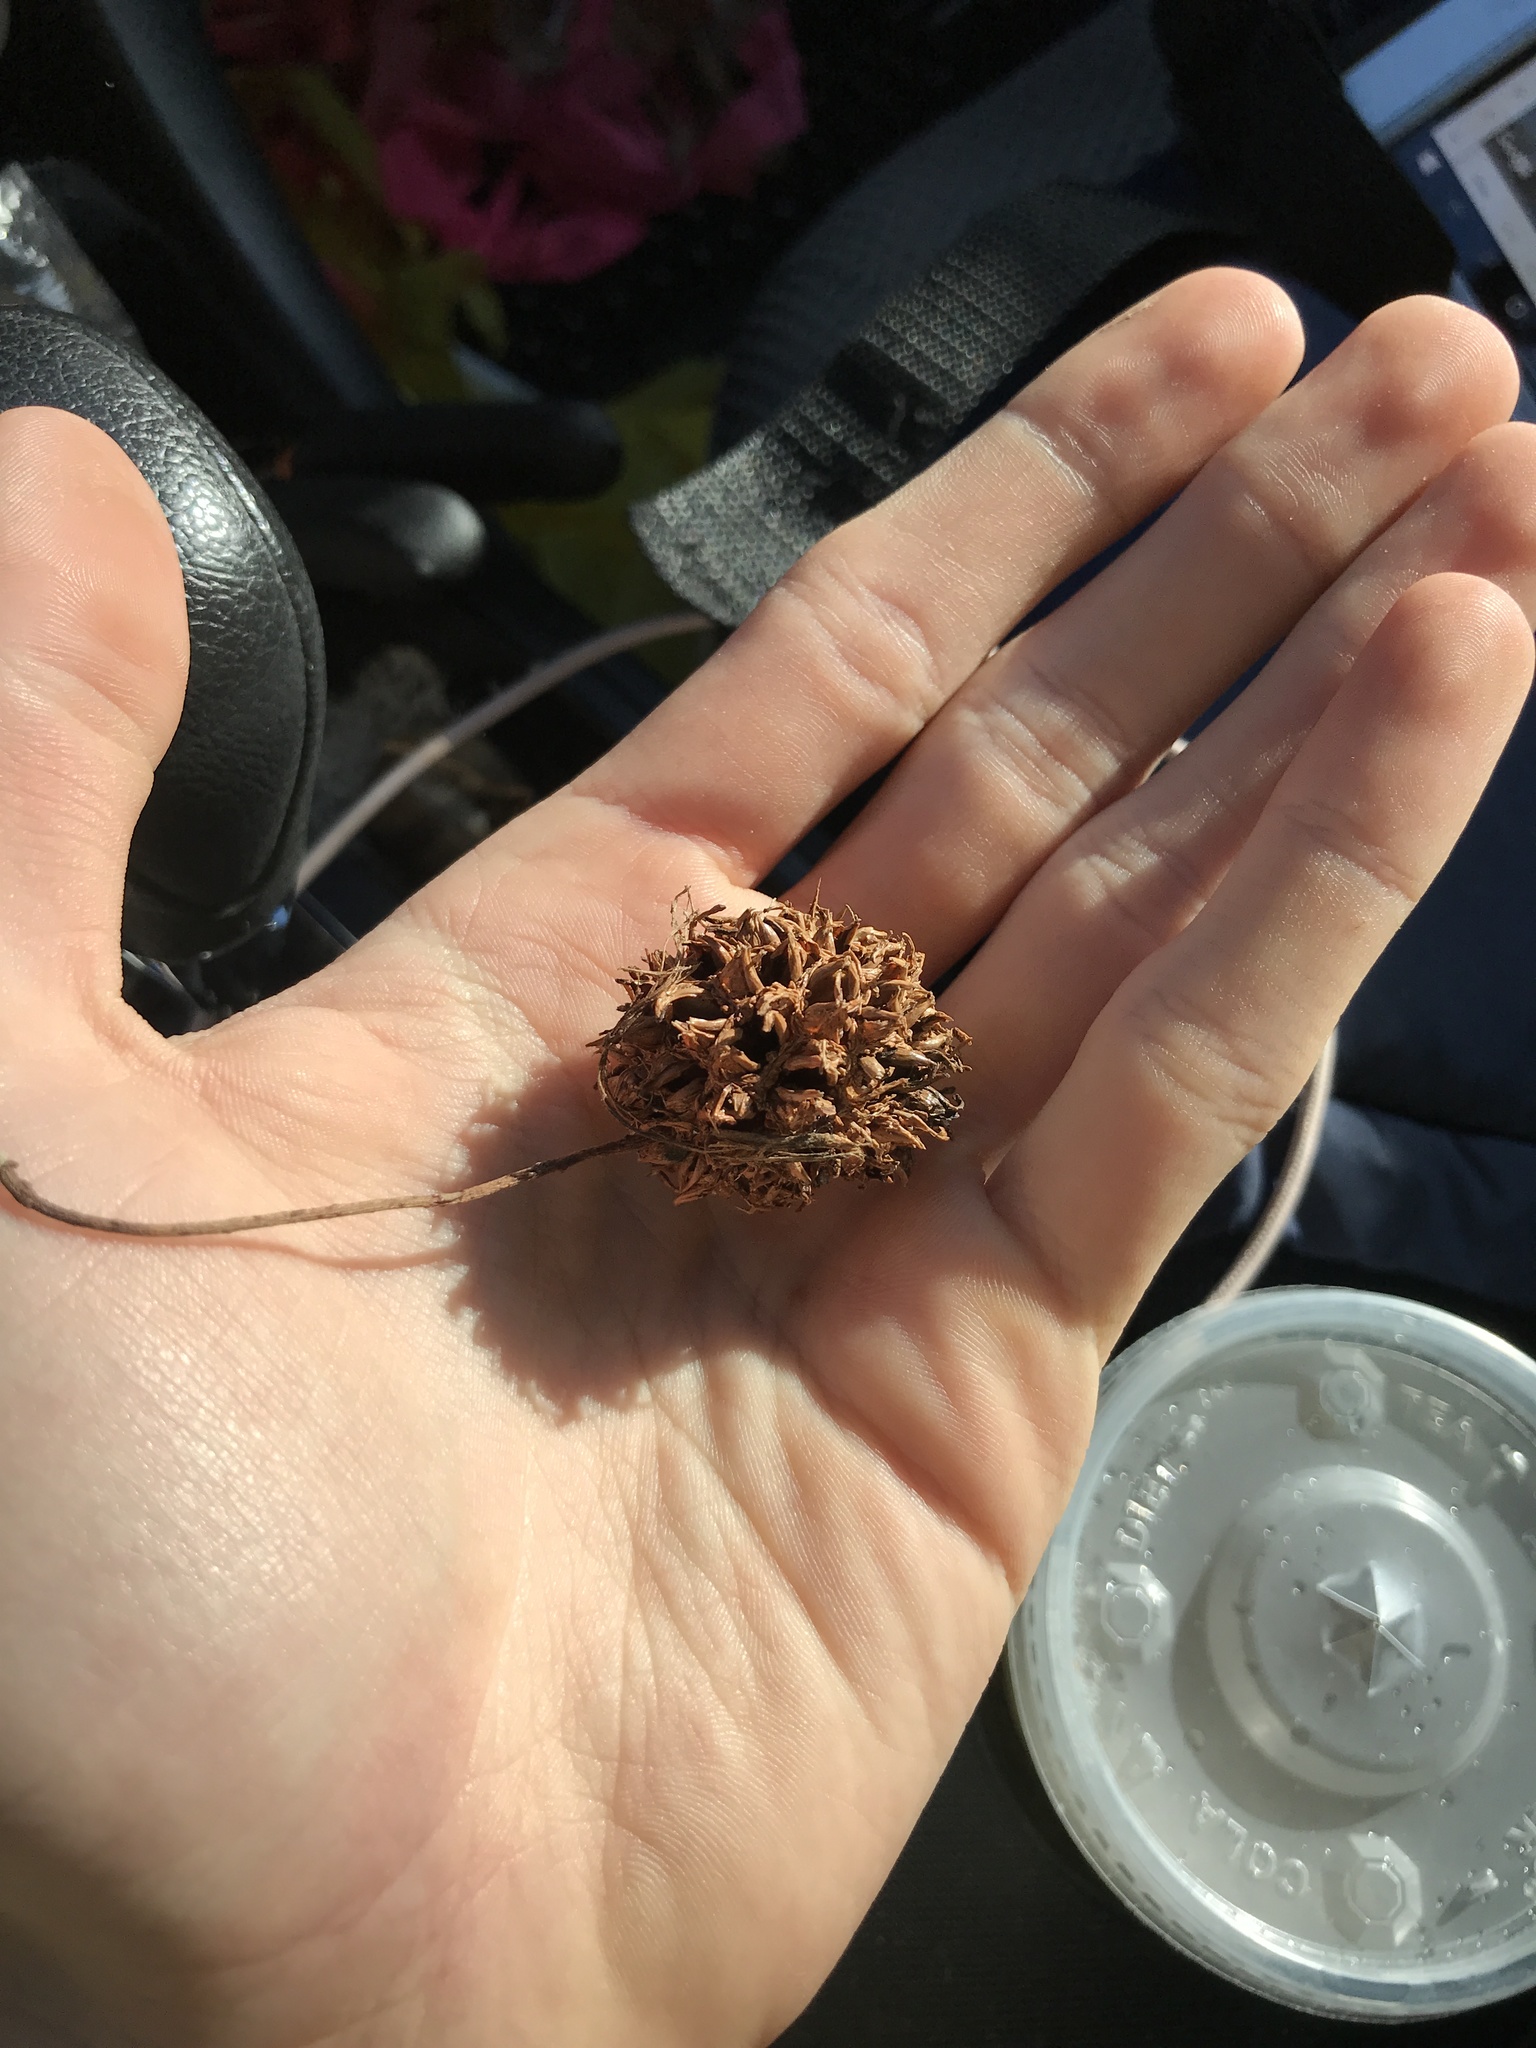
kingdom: Plantae
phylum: Tracheophyta
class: Magnoliopsida
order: Saxifragales
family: Altingiaceae
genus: Liquidambar
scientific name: Liquidambar styraciflua
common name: Sweet gum
